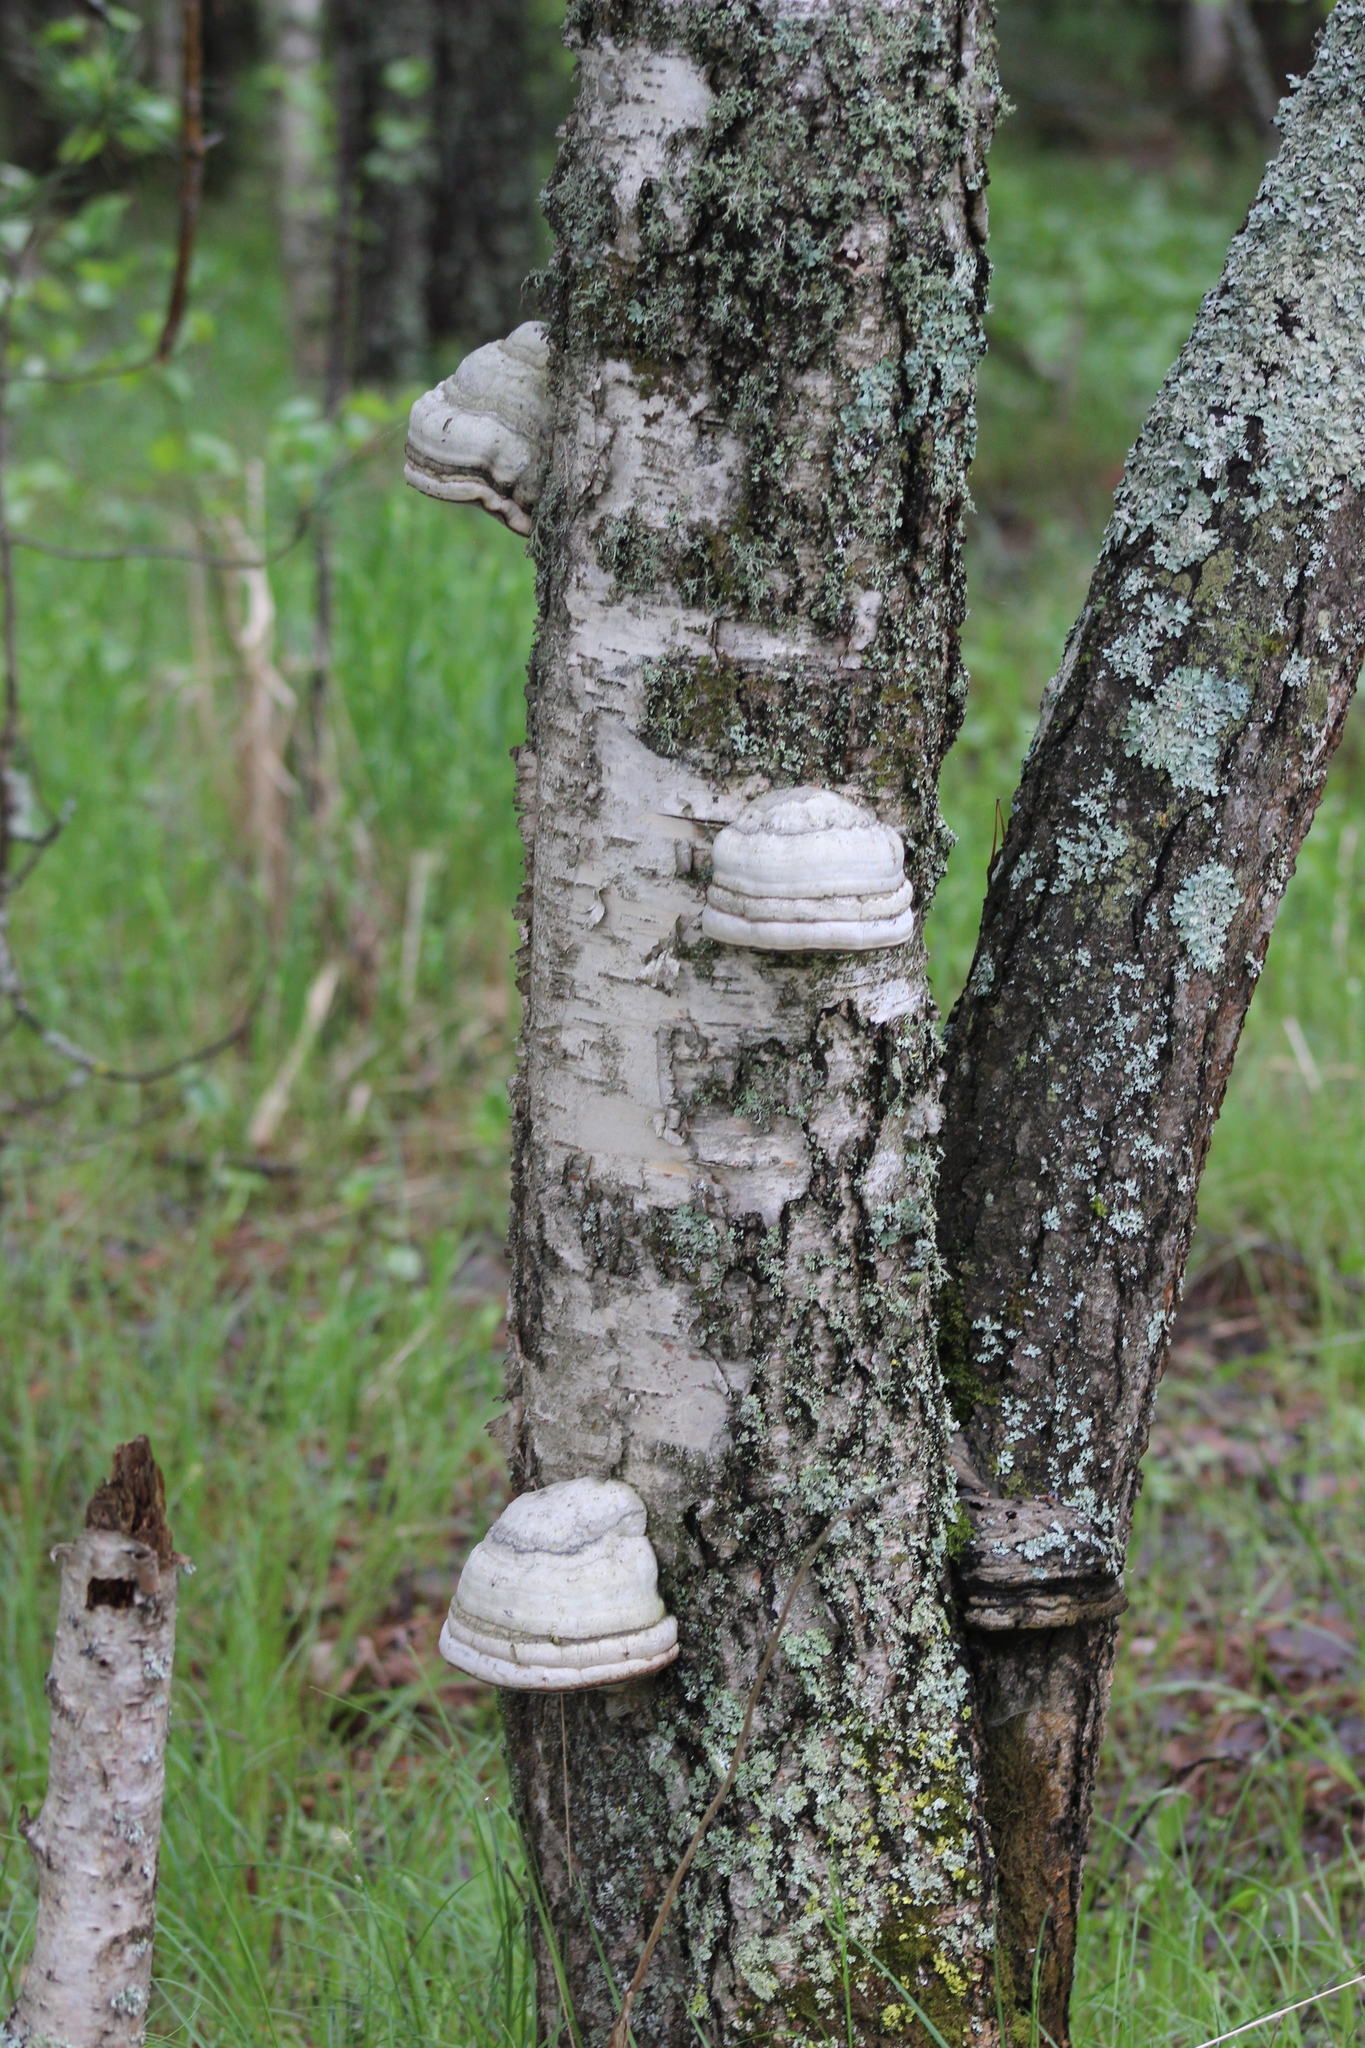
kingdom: Fungi
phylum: Basidiomycota
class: Agaricomycetes
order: Polyporales
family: Polyporaceae
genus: Fomes
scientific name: Fomes fomentarius
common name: Hoof fungus
